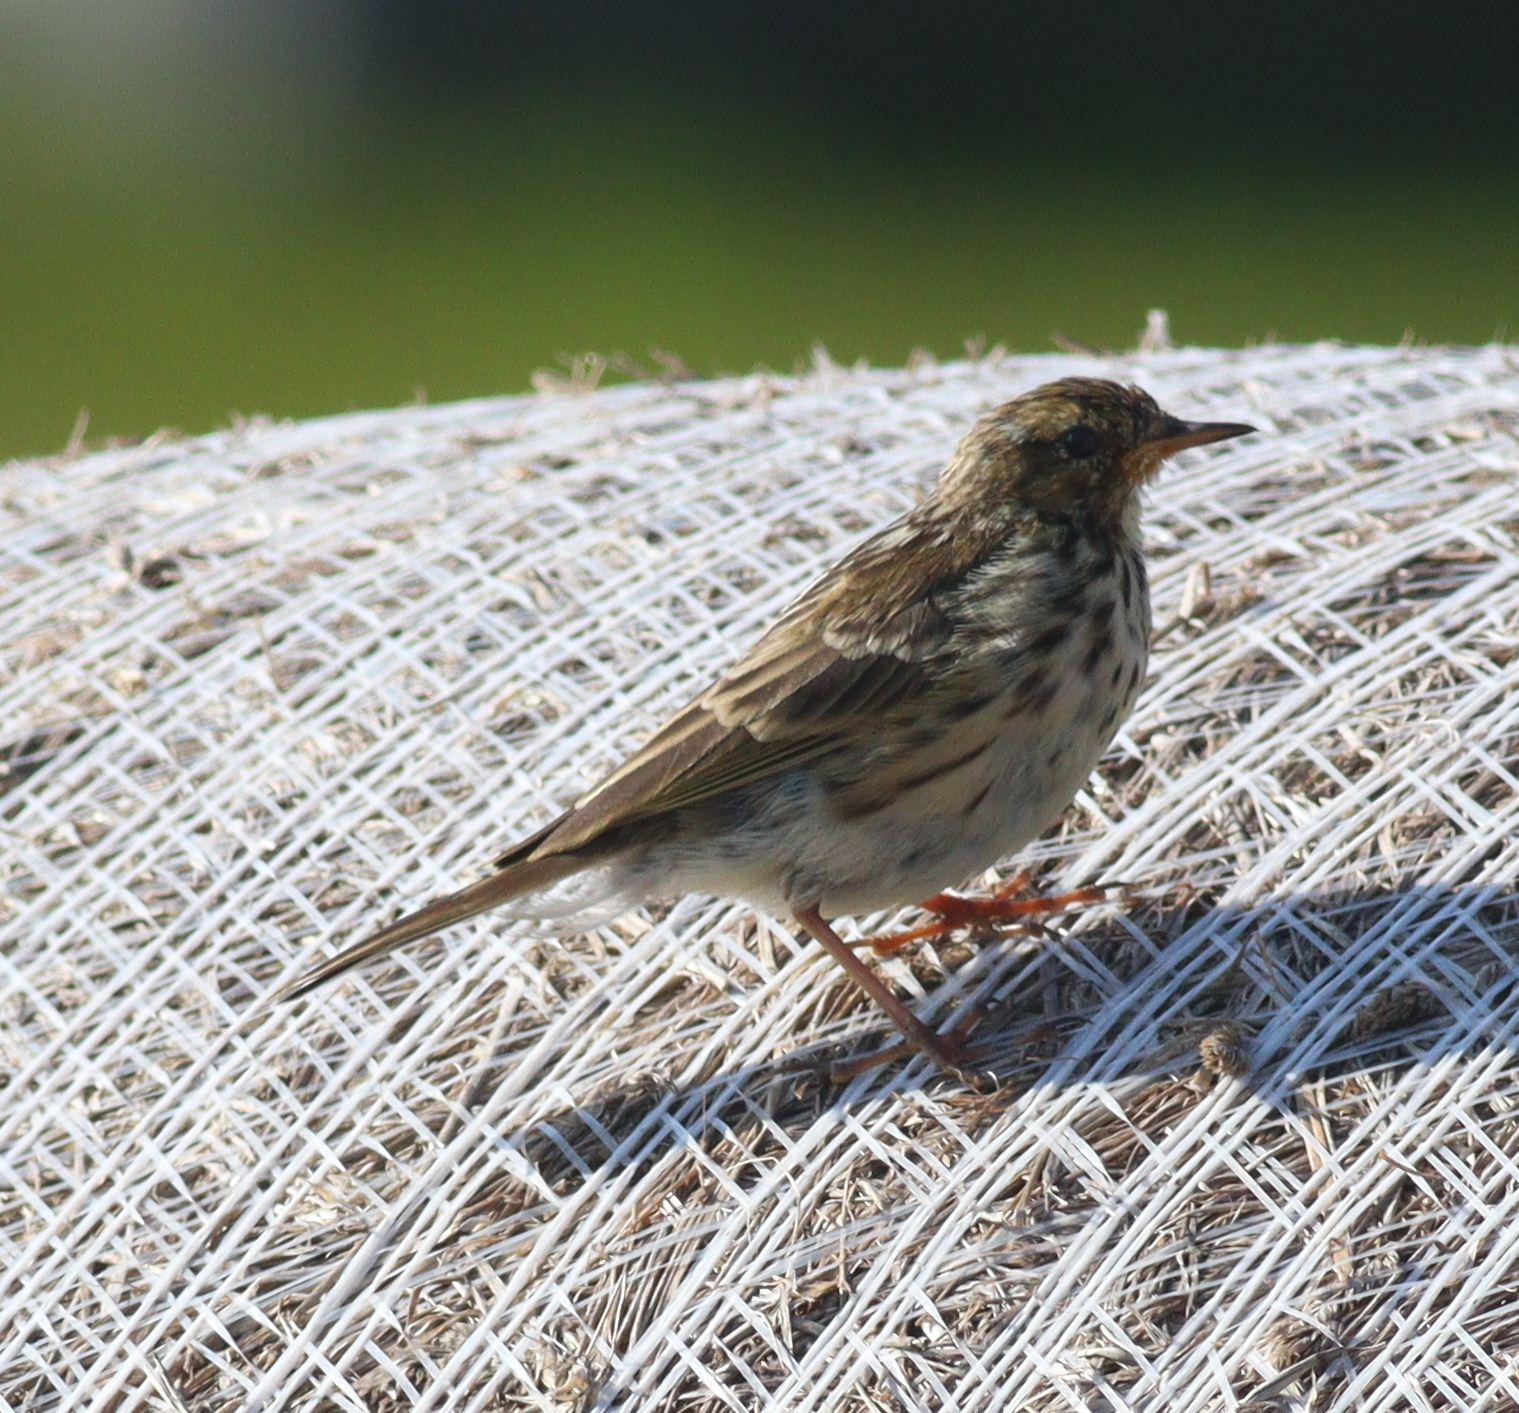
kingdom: Animalia
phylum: Chordata
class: Aves
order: Passeriformes
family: Motacillidae
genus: Anthus
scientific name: Anthus pratensis
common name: Meadow pipit
